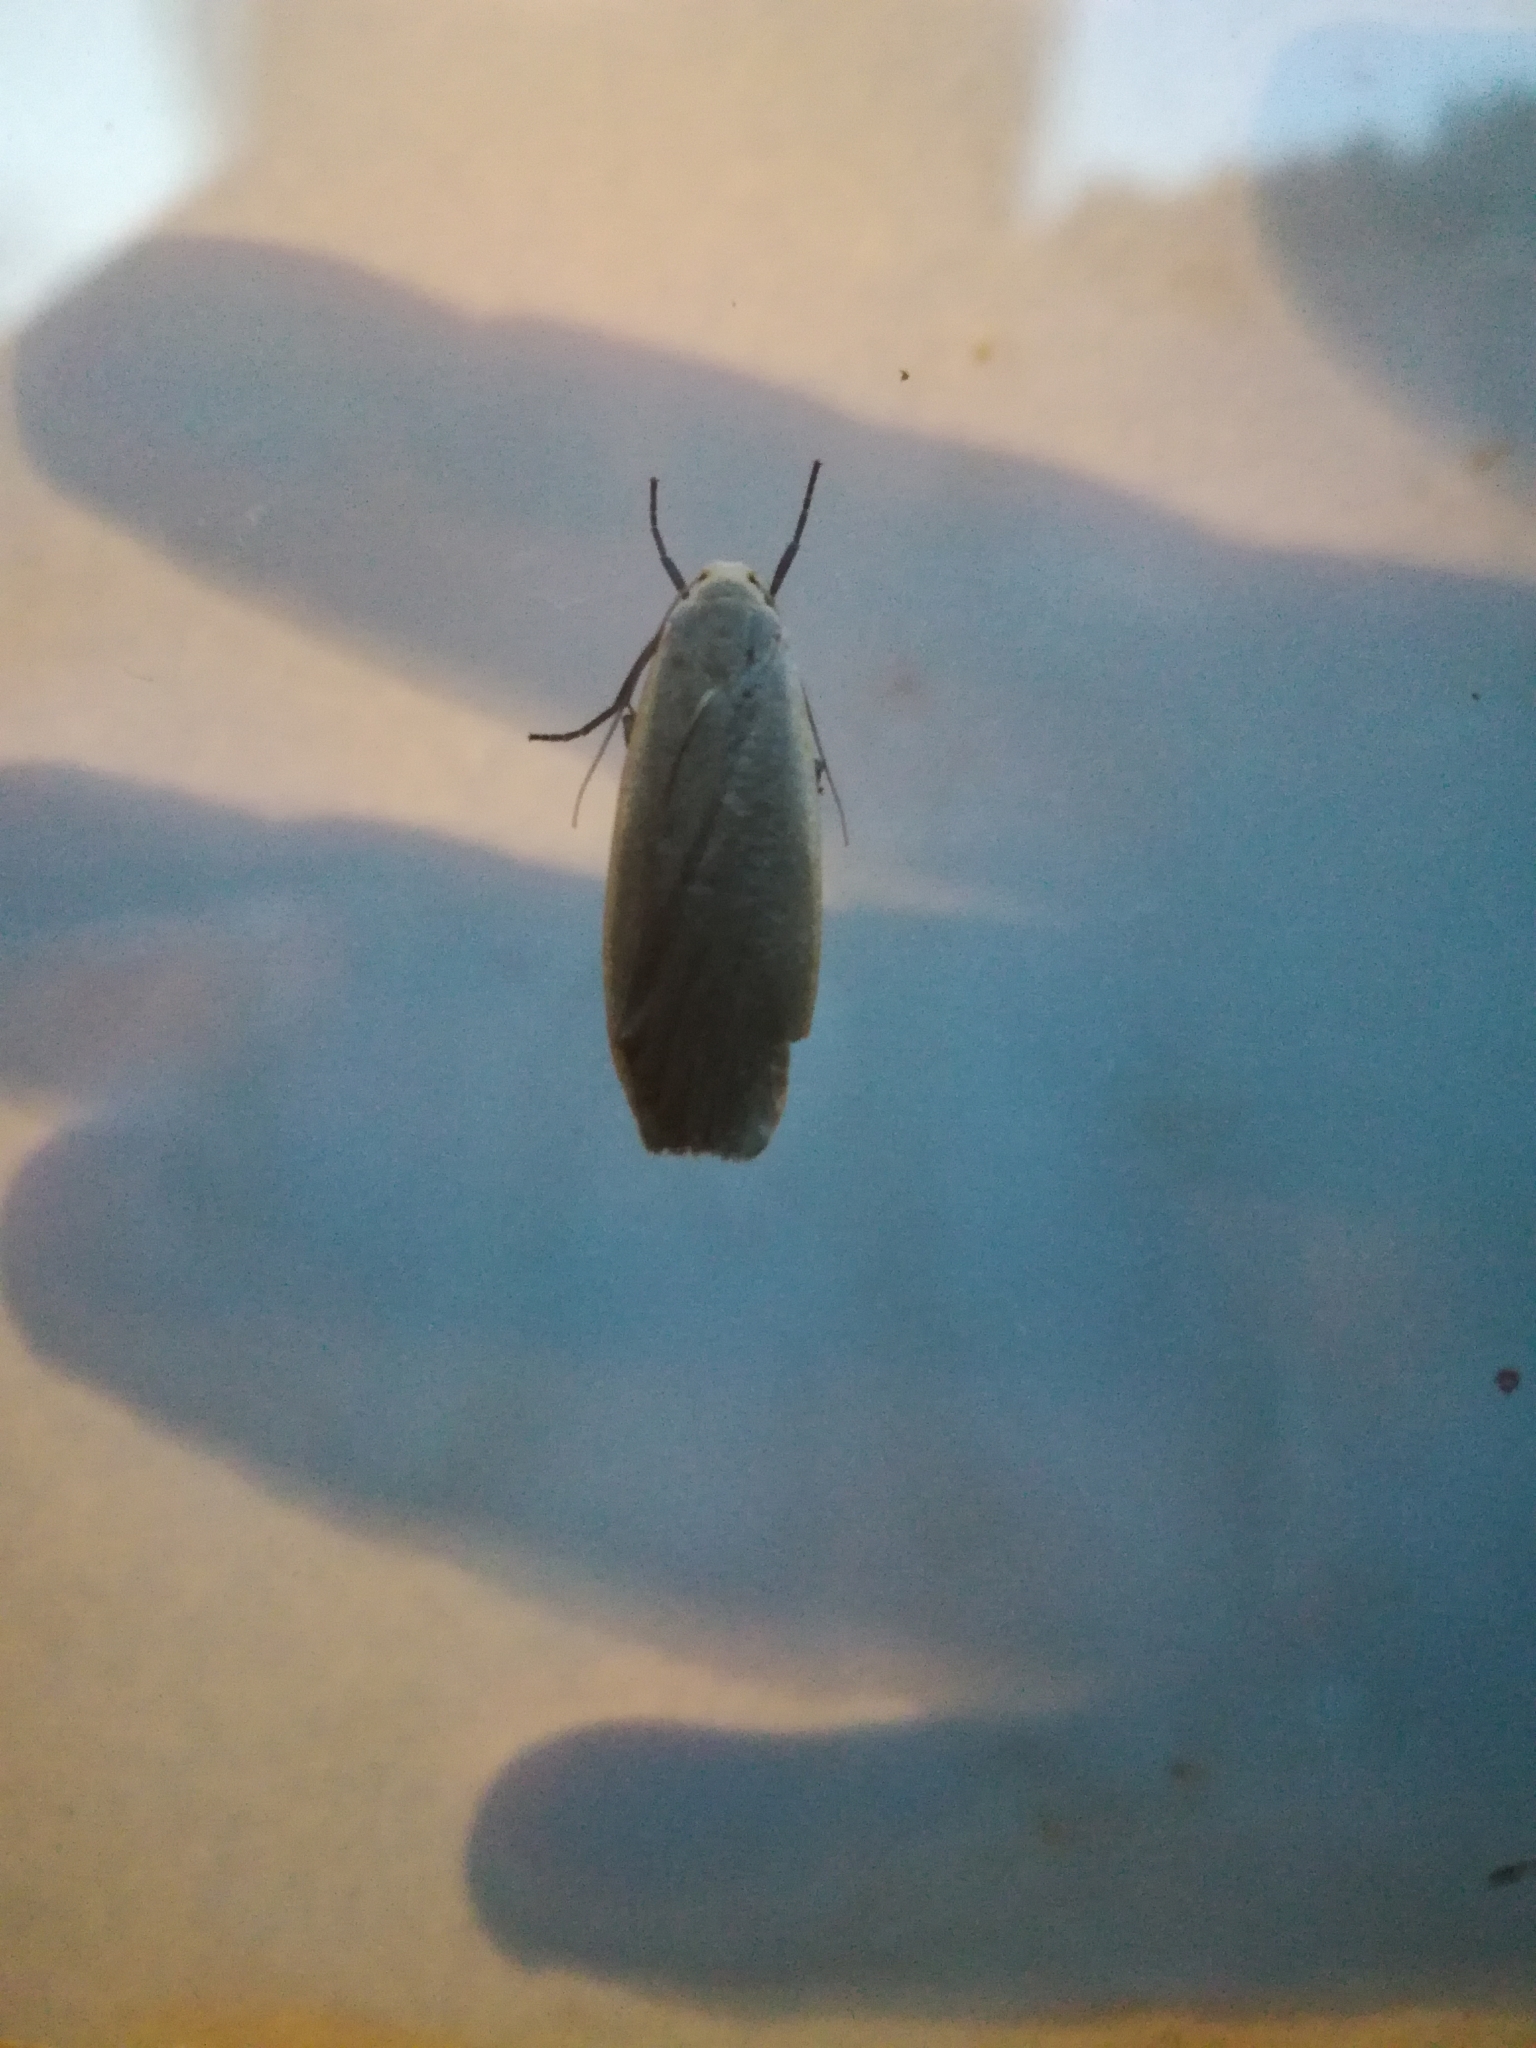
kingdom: Animalia
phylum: Arthropoda
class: Insecta
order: Lepidoptera
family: Erebidae
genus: Collita
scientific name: Collita griseola
